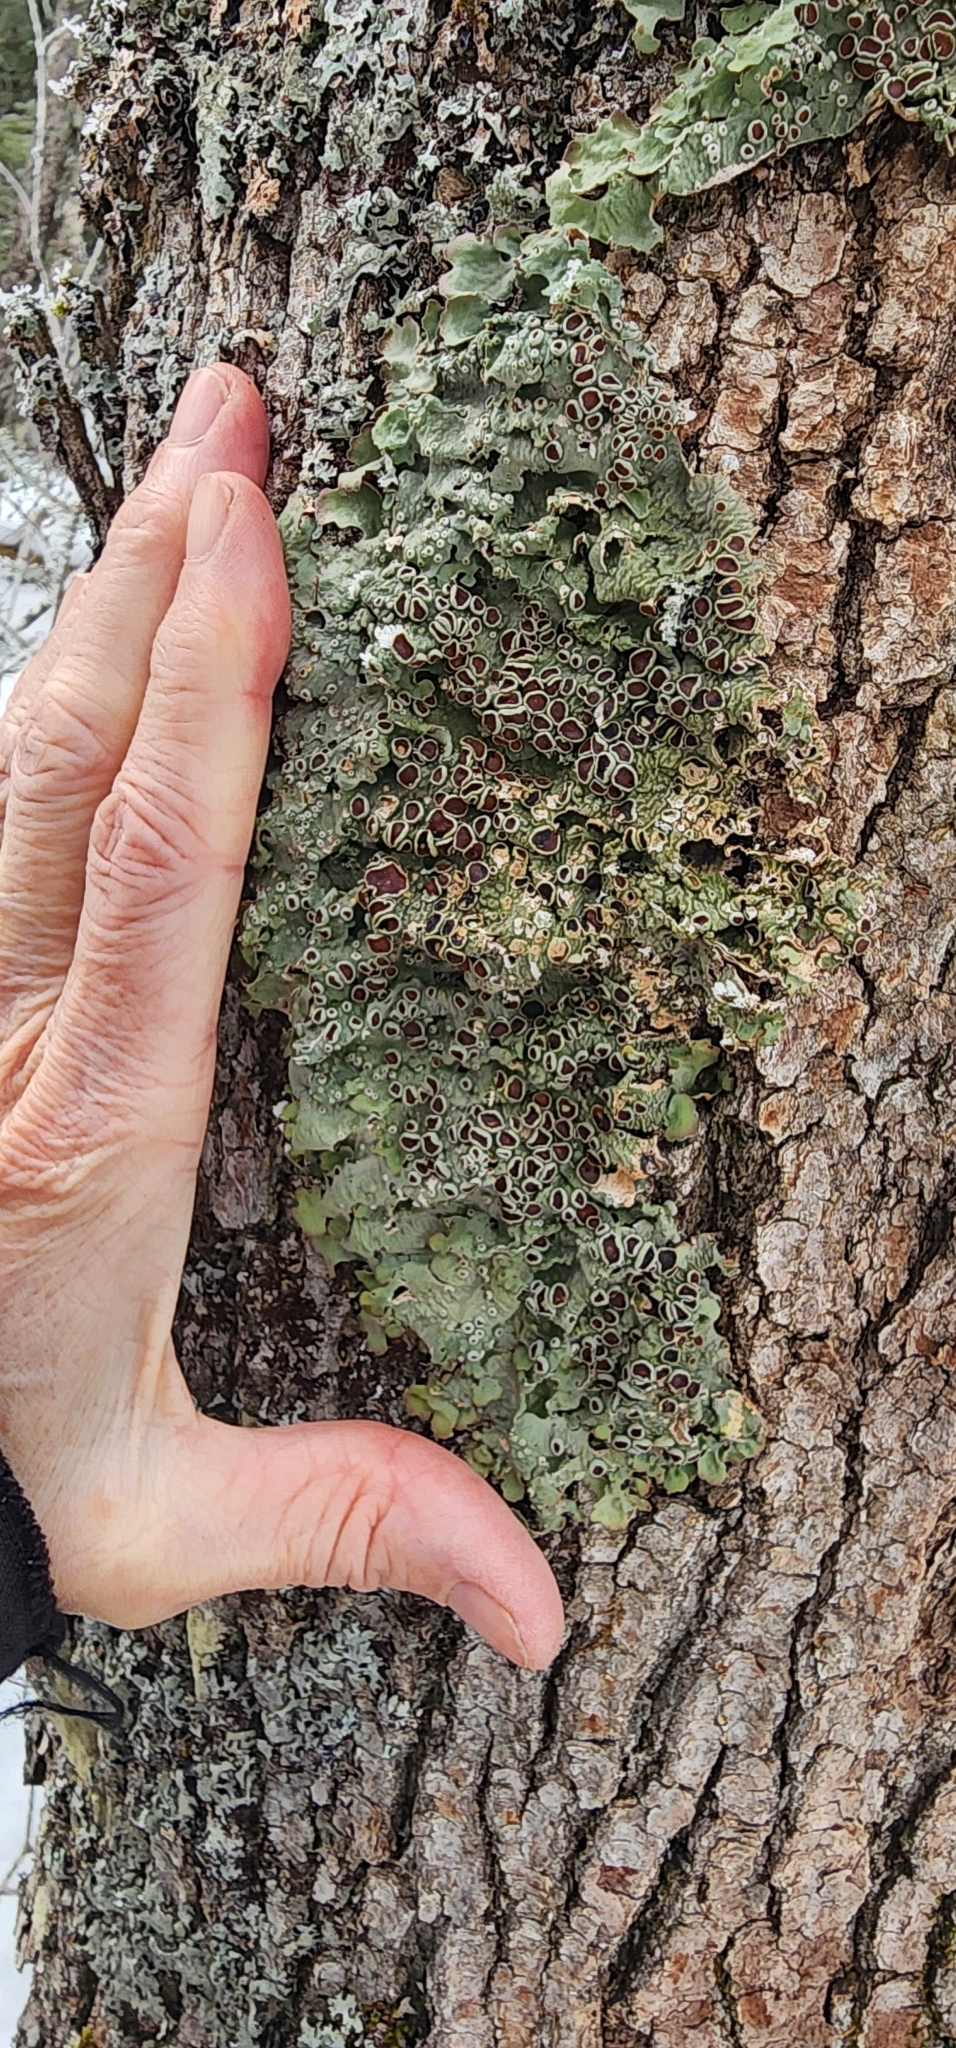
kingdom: Fungi
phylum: Ascomycota
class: Lecanoromycetes
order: Peltigerales
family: Lobariaceae
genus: Ricasolia
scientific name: Ricasolia quercizans
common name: Smooth lungwort
